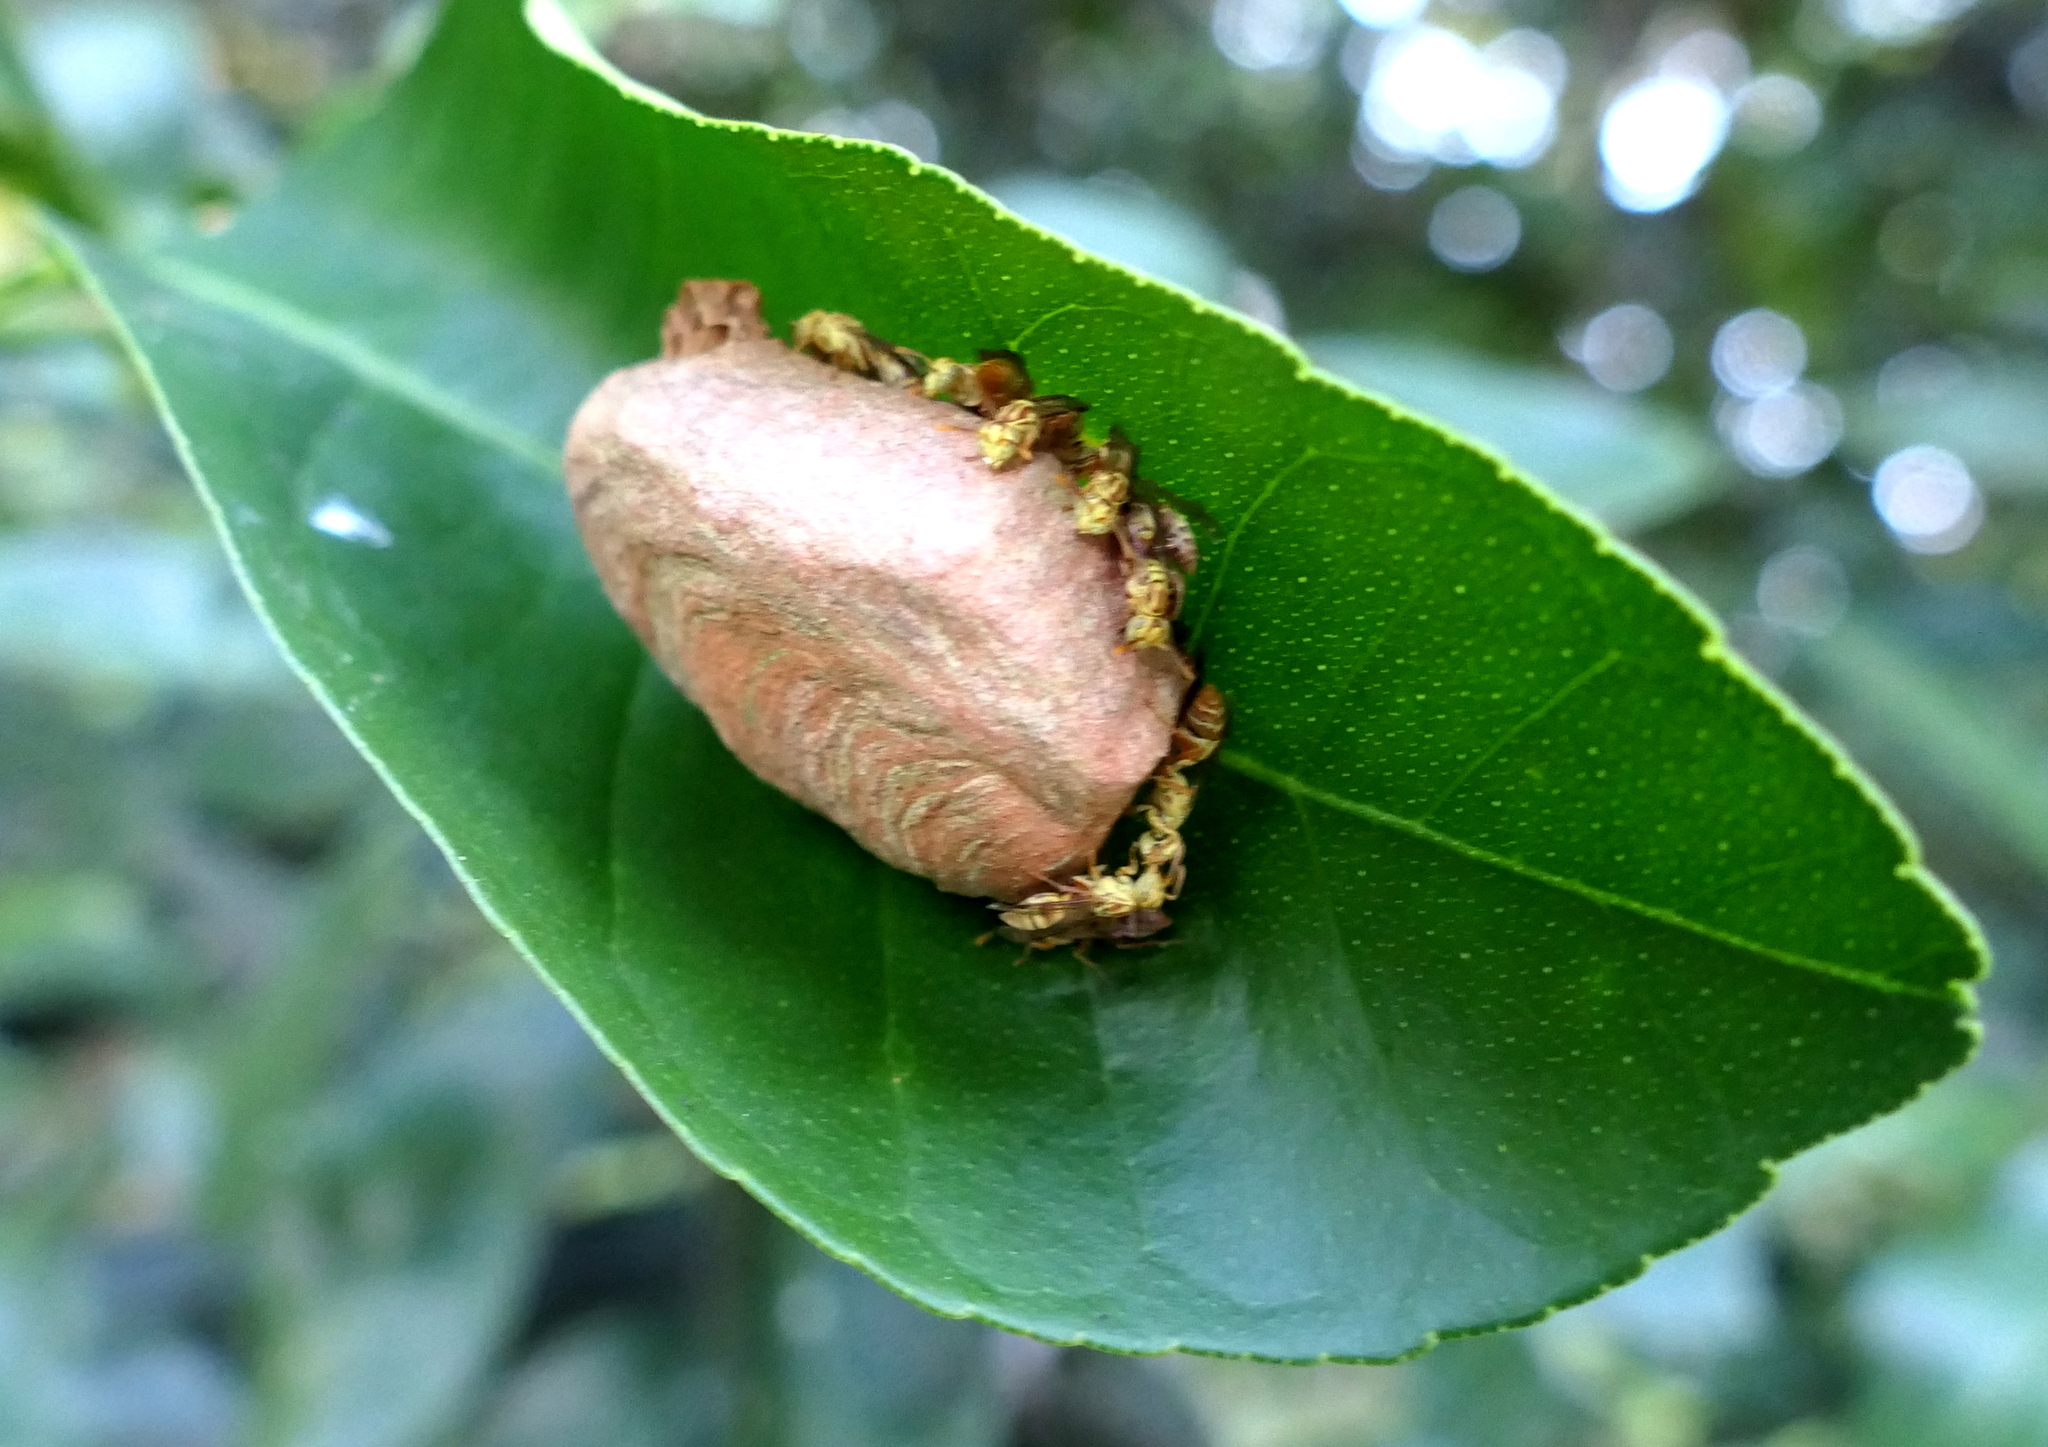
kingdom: Animalia
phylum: Arthropoda
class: Insecta
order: Hymenoptera
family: Vespidae
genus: Protopolybia
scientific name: Protopolybia potiguara
